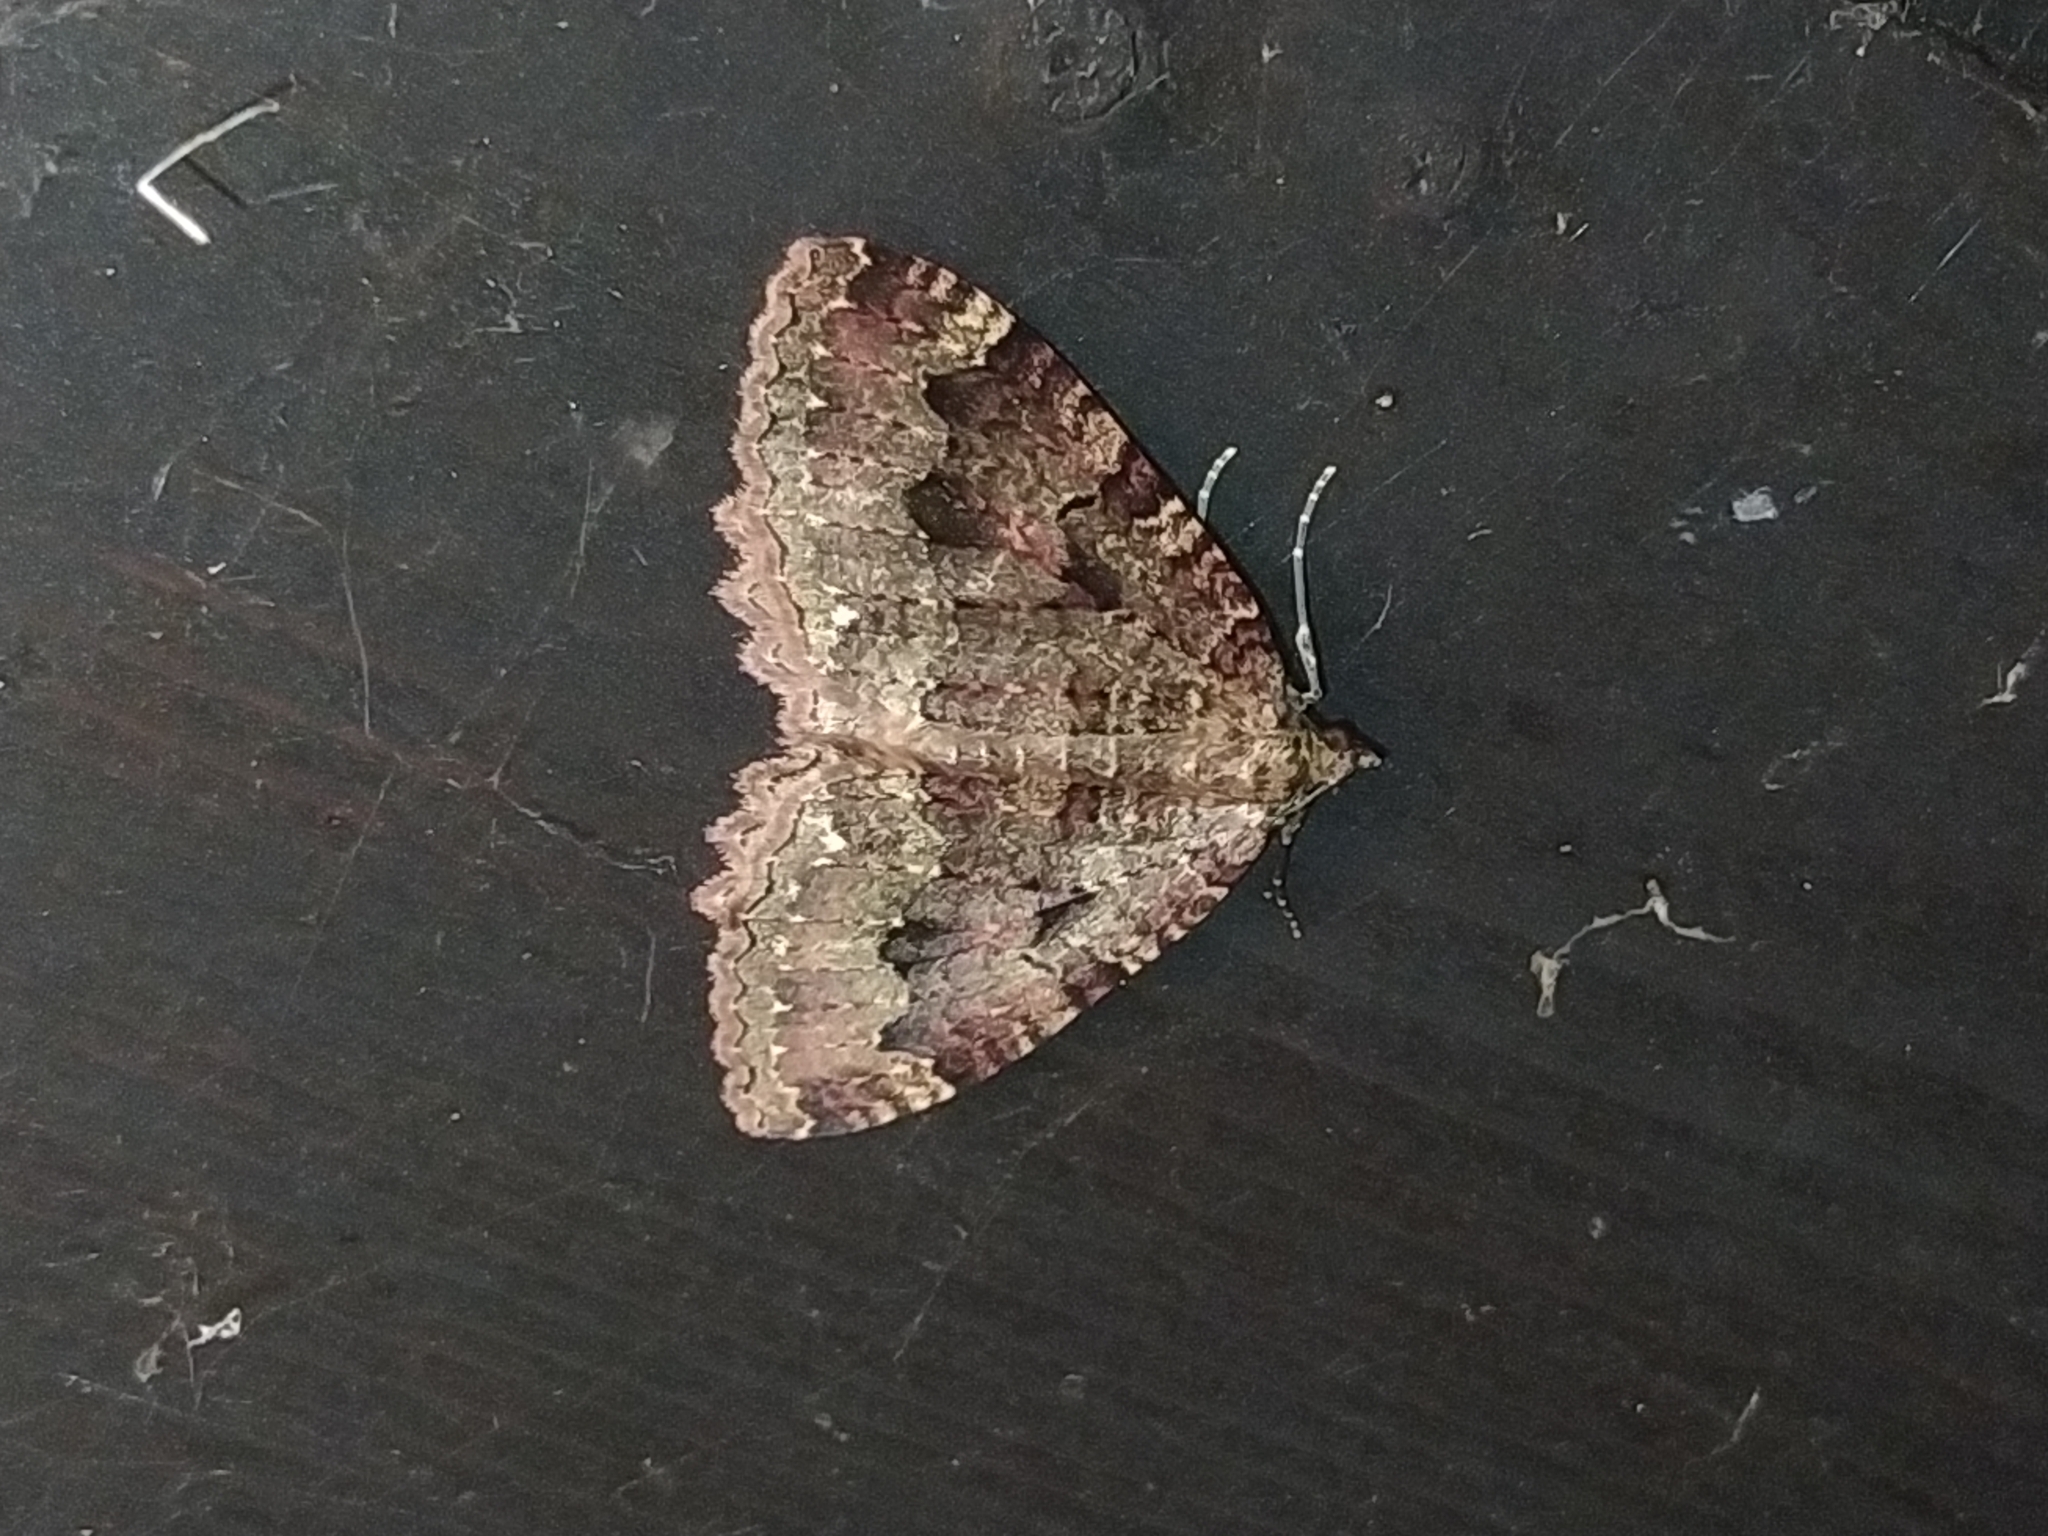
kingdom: Animalia
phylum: Arthropoda
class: Insecta
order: Lepidoptera
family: Geometridae
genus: Triphosa
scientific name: Triphosa dubitata
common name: Tissue
